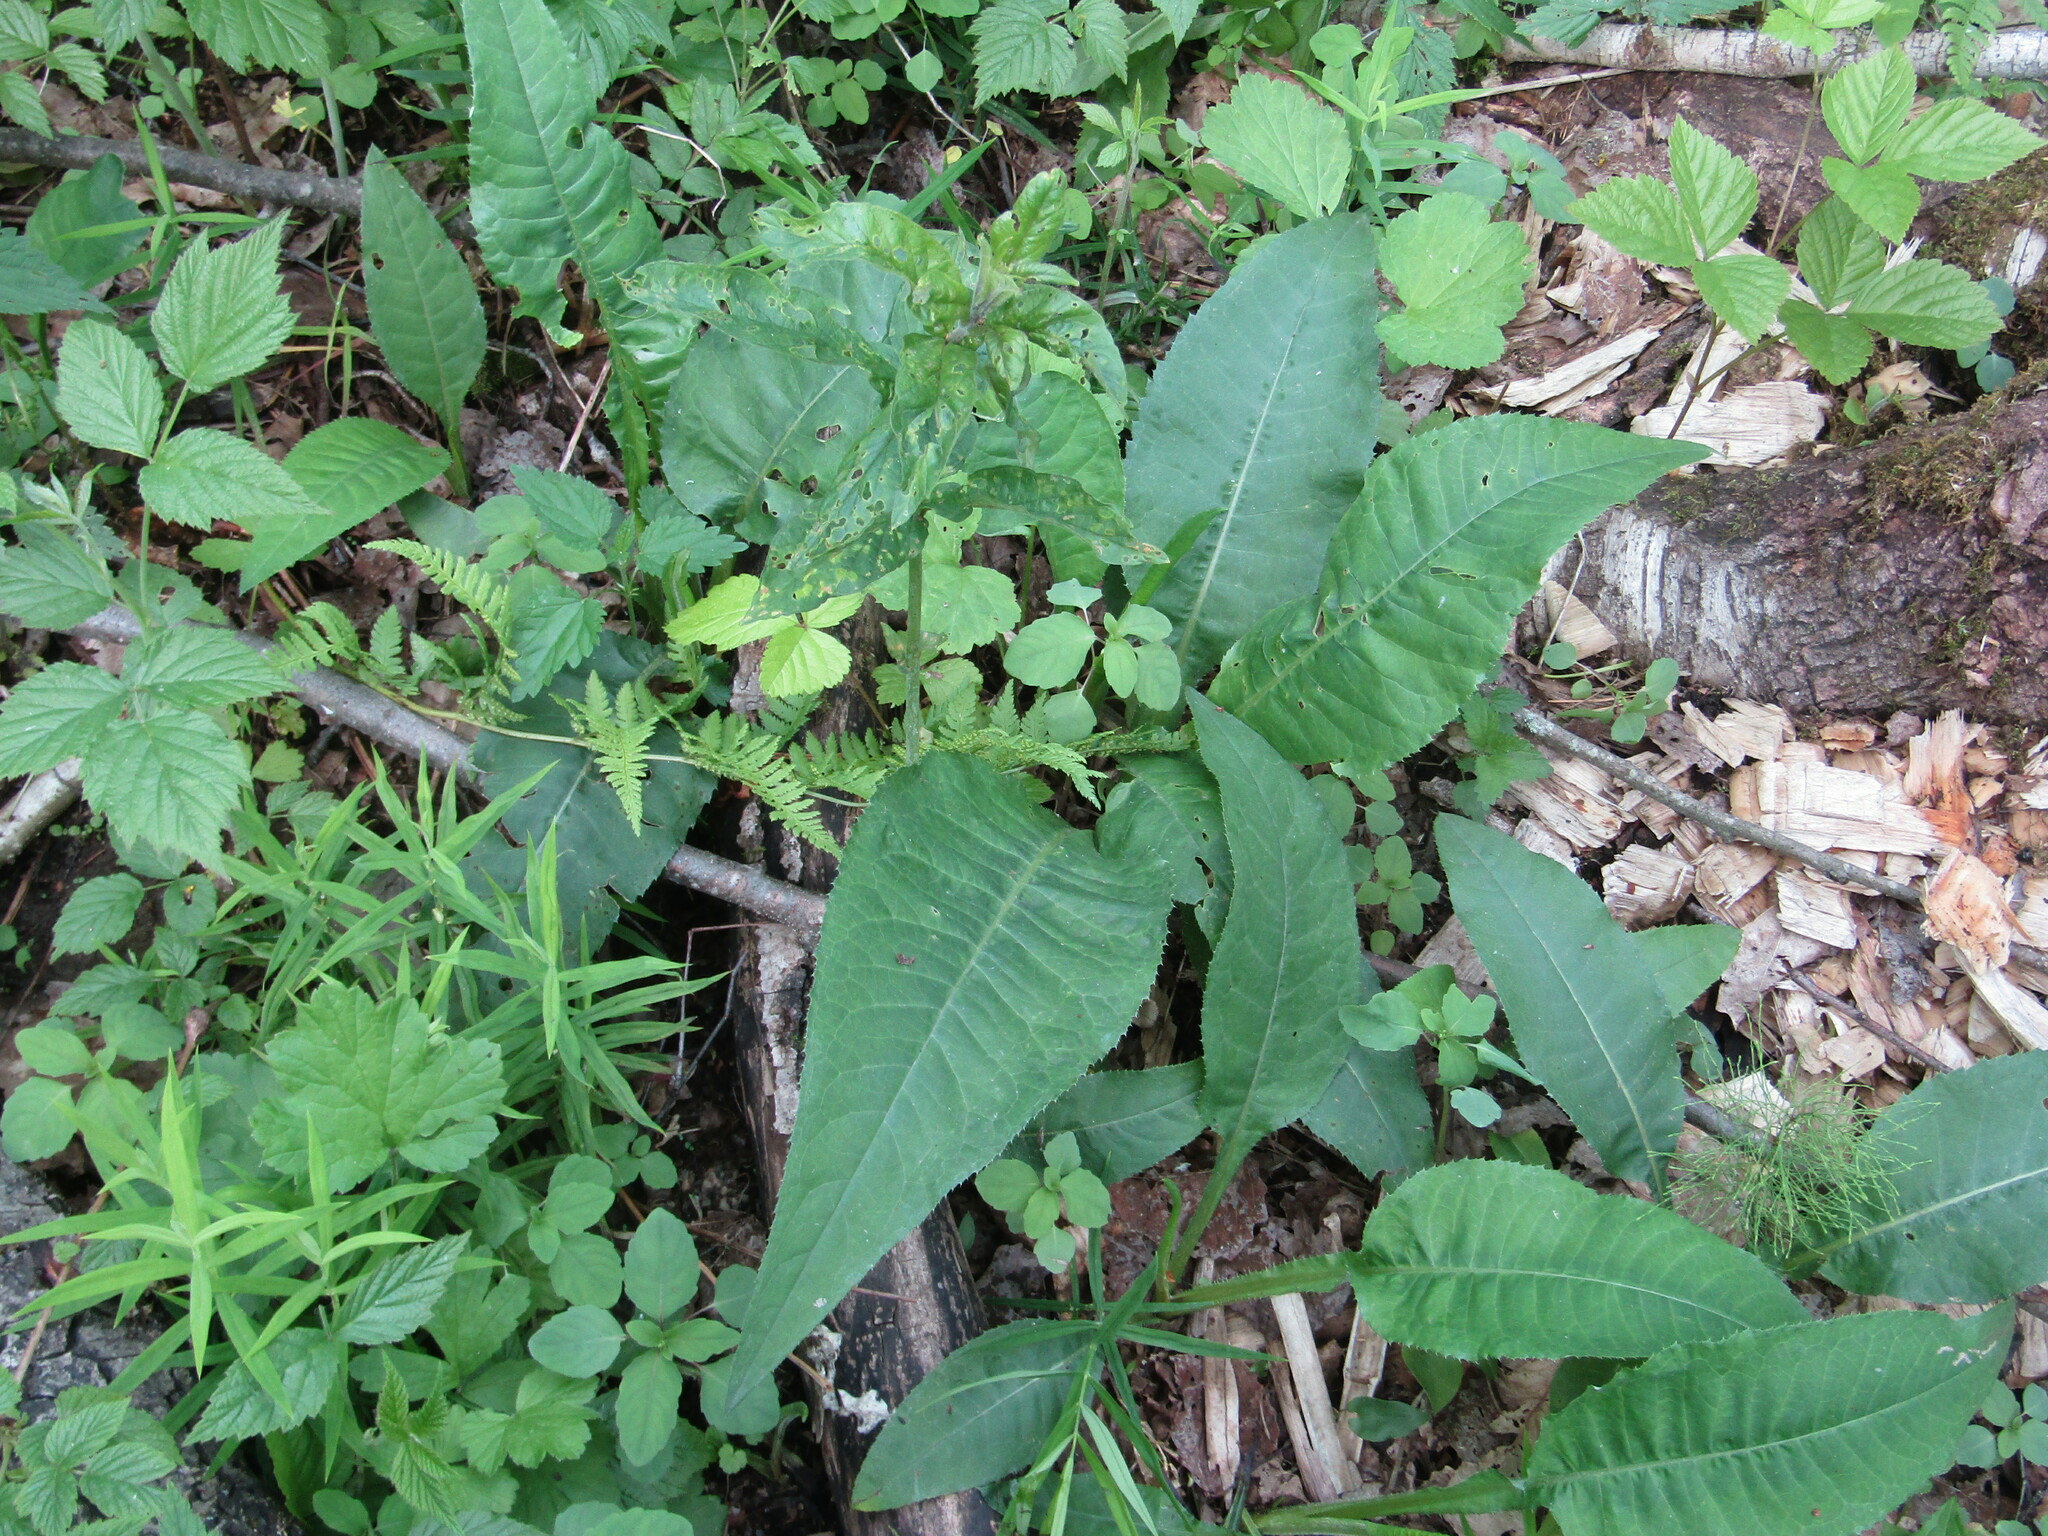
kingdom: Plantae
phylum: Tracheophyta
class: Magnoliopsida
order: Asterales
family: Asteraceae
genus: Cirsium
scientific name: Cirsium heterophyllum
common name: Melancholy thistle
